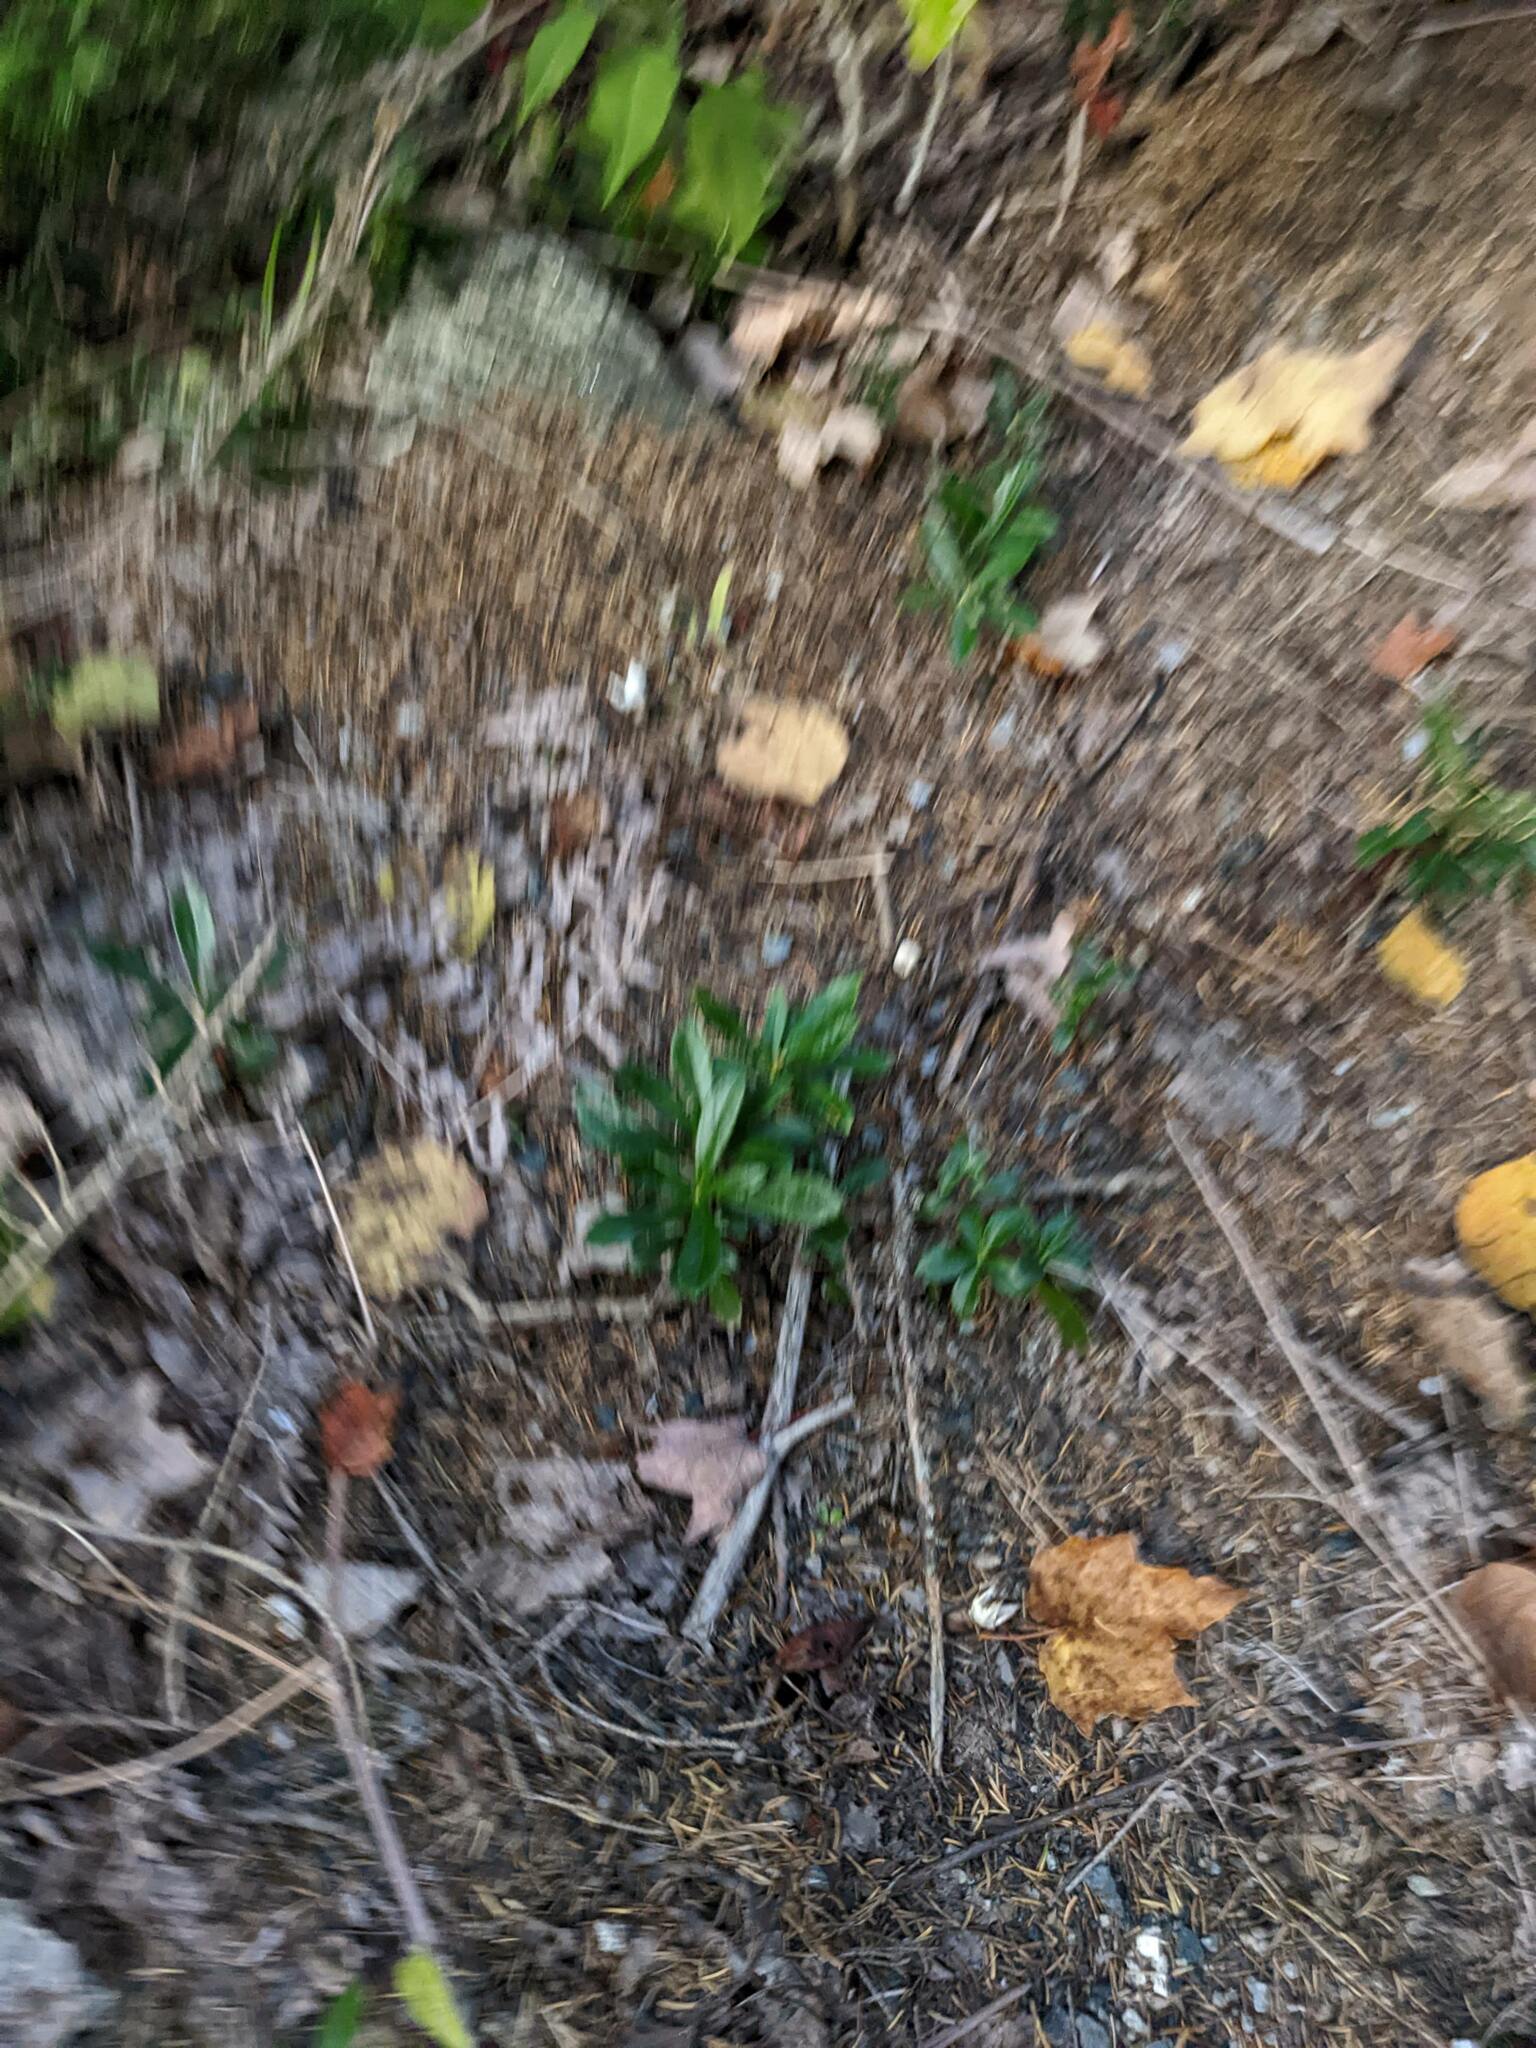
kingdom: Plantae
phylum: Tracheophyta
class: Magnoliopsida
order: Ericales
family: Ericaceae
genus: Chimaphila
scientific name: Chimaphila umbellata
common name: Pipsissewa
